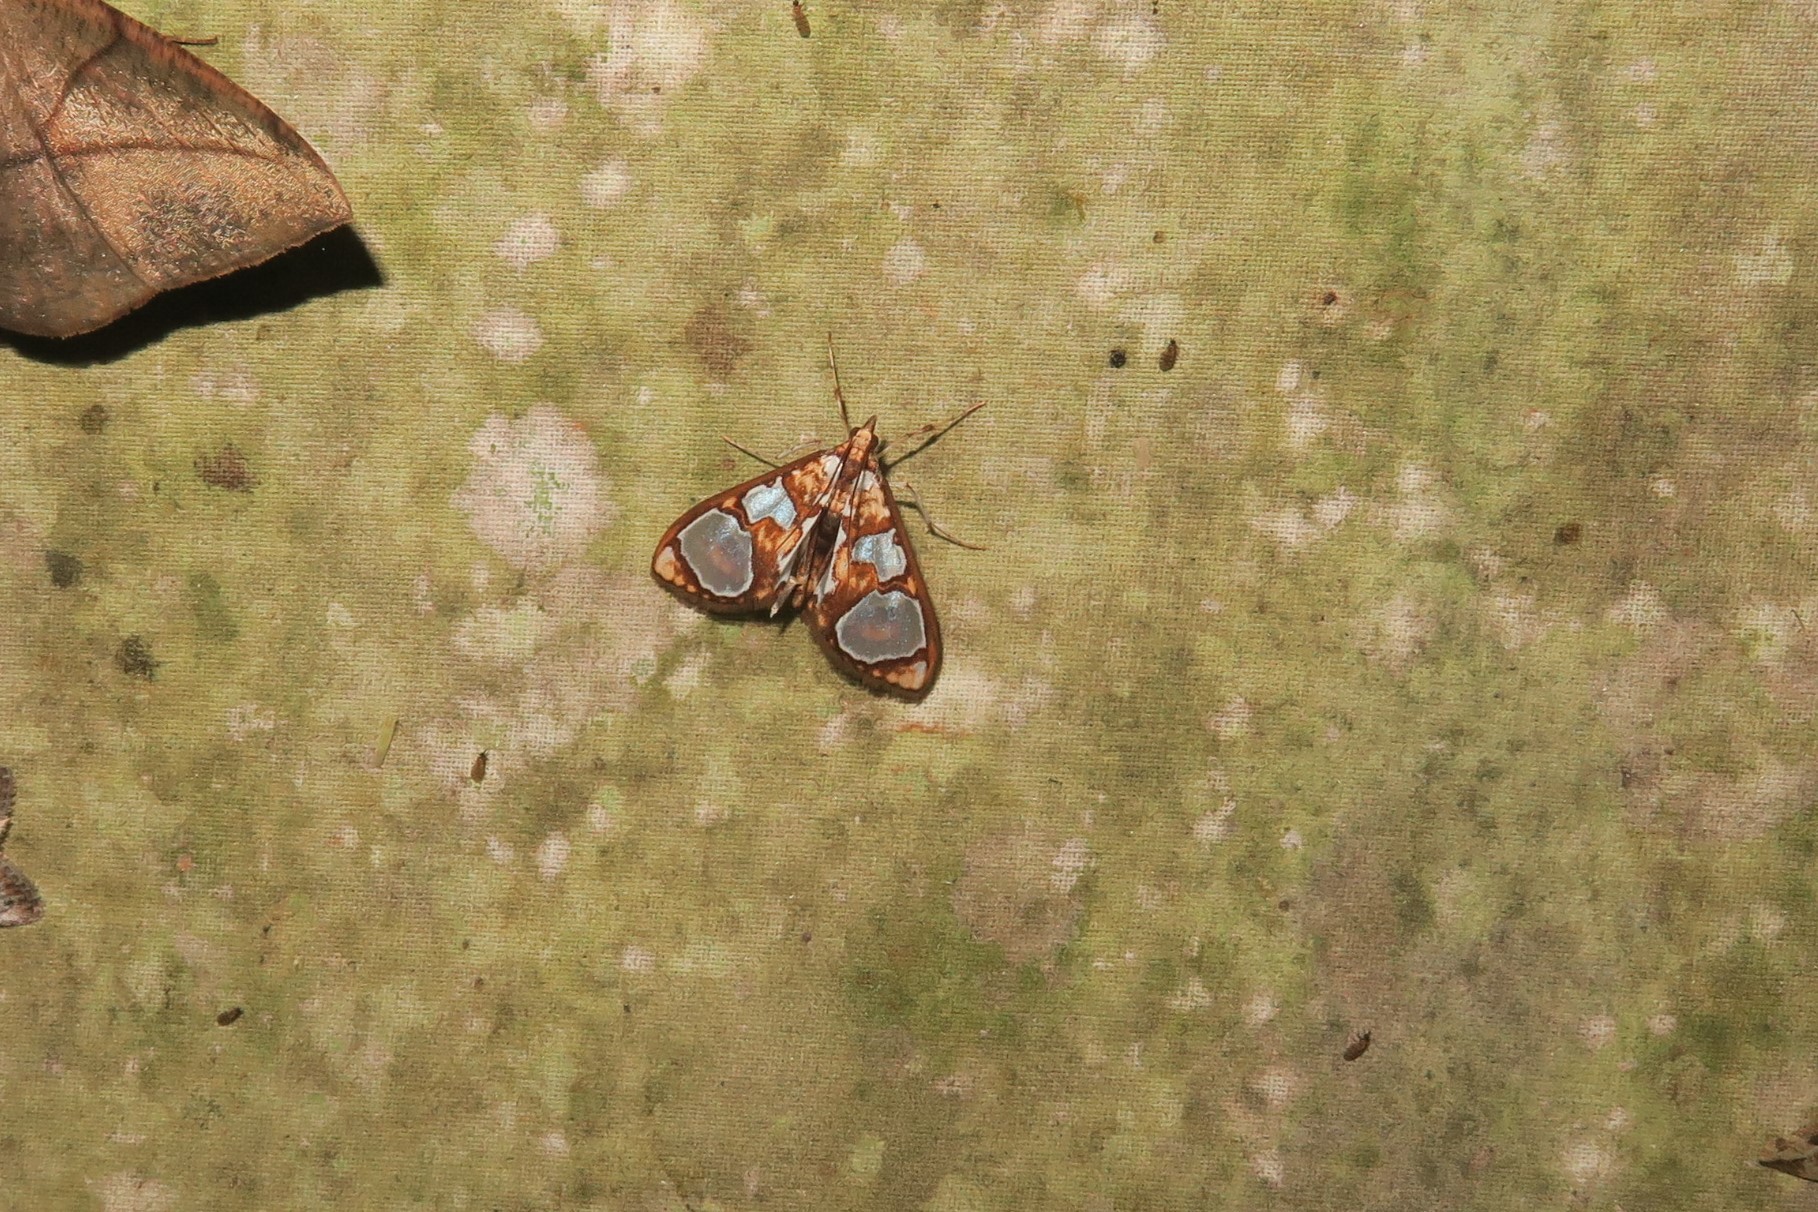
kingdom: Animalia
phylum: Arthropoda
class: Insecta
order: Lepidoptera
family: Crambidae
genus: Glyphodes
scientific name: Glyphodes grandisalis
